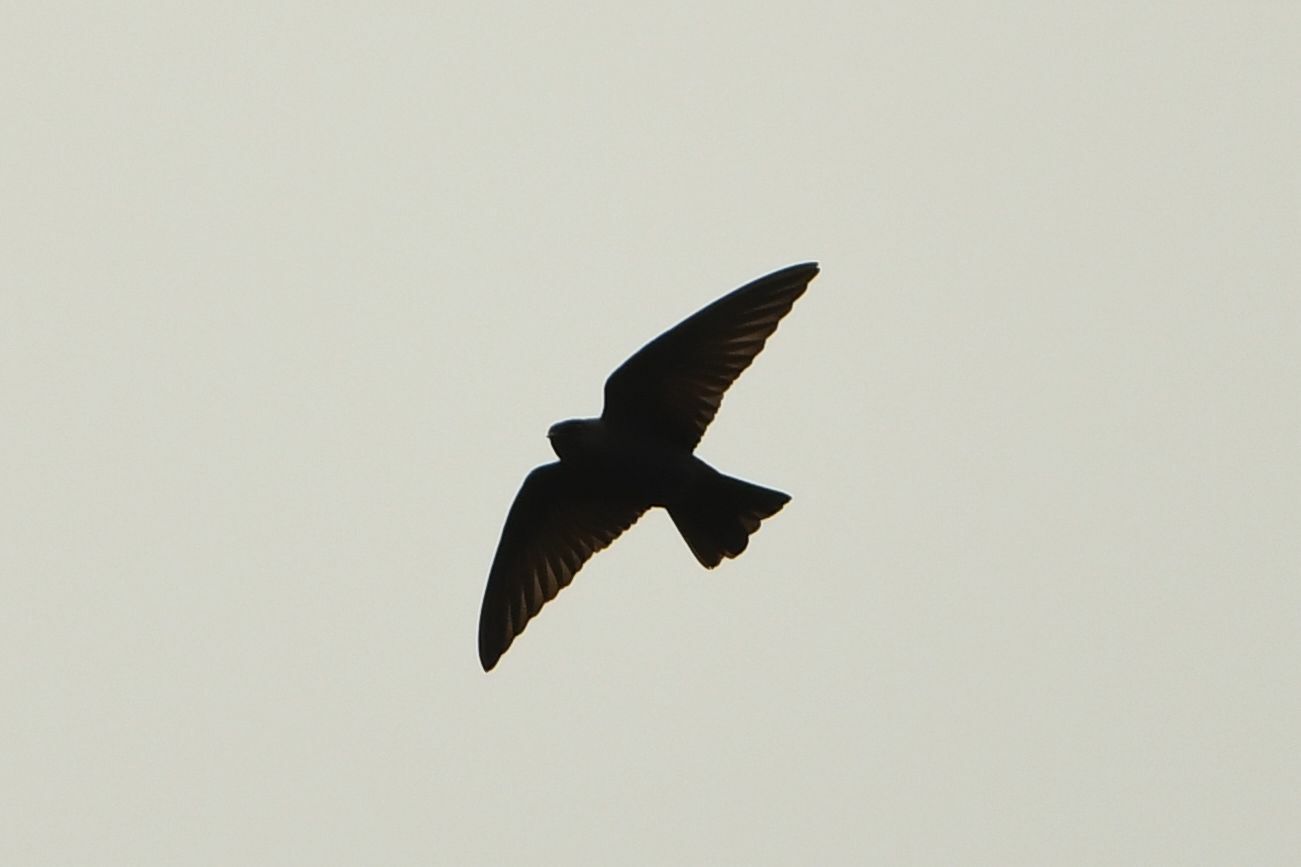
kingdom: Animalia
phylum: Chordata
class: Aves
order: Passeriformes
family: Hirundinidae
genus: Psalidoprocne
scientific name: Psalidoprocne nitens
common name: Square-tailed saw-wing
